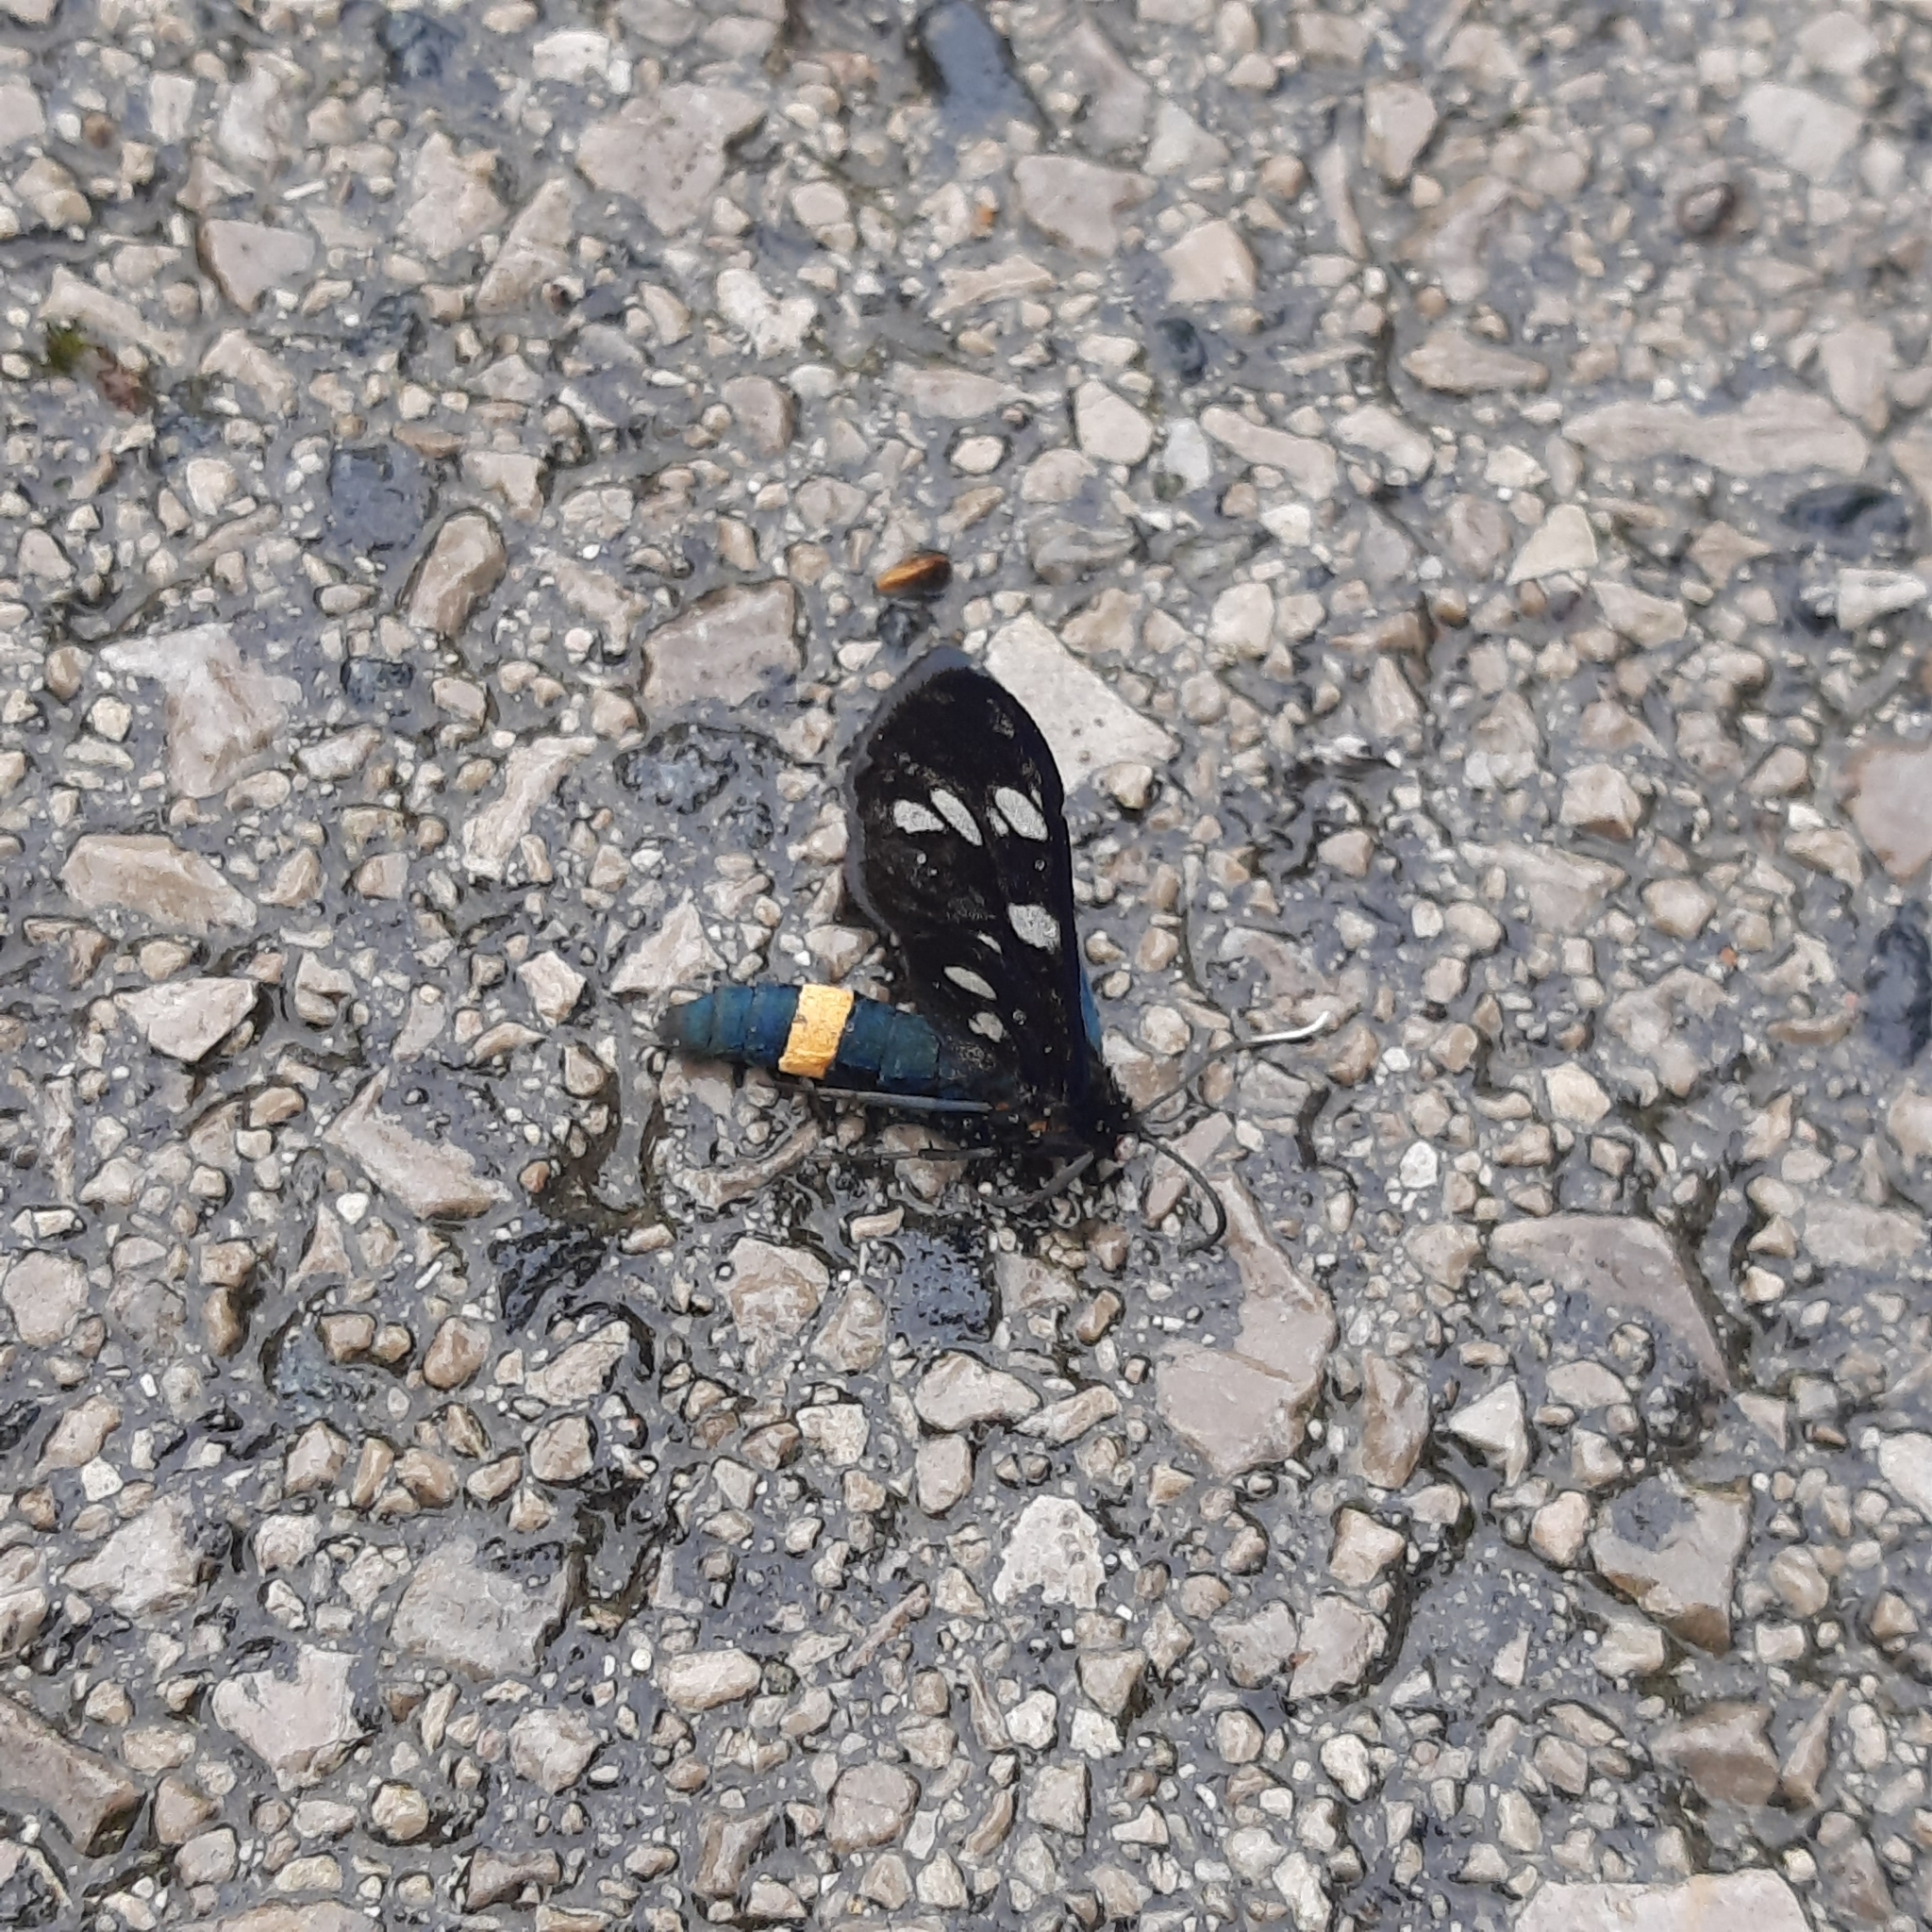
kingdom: Animalia
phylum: Arthropoda
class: Insecta
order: Lepidoptera
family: Erebidae
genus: Amata
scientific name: Amata phegea
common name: Nine-spotted
